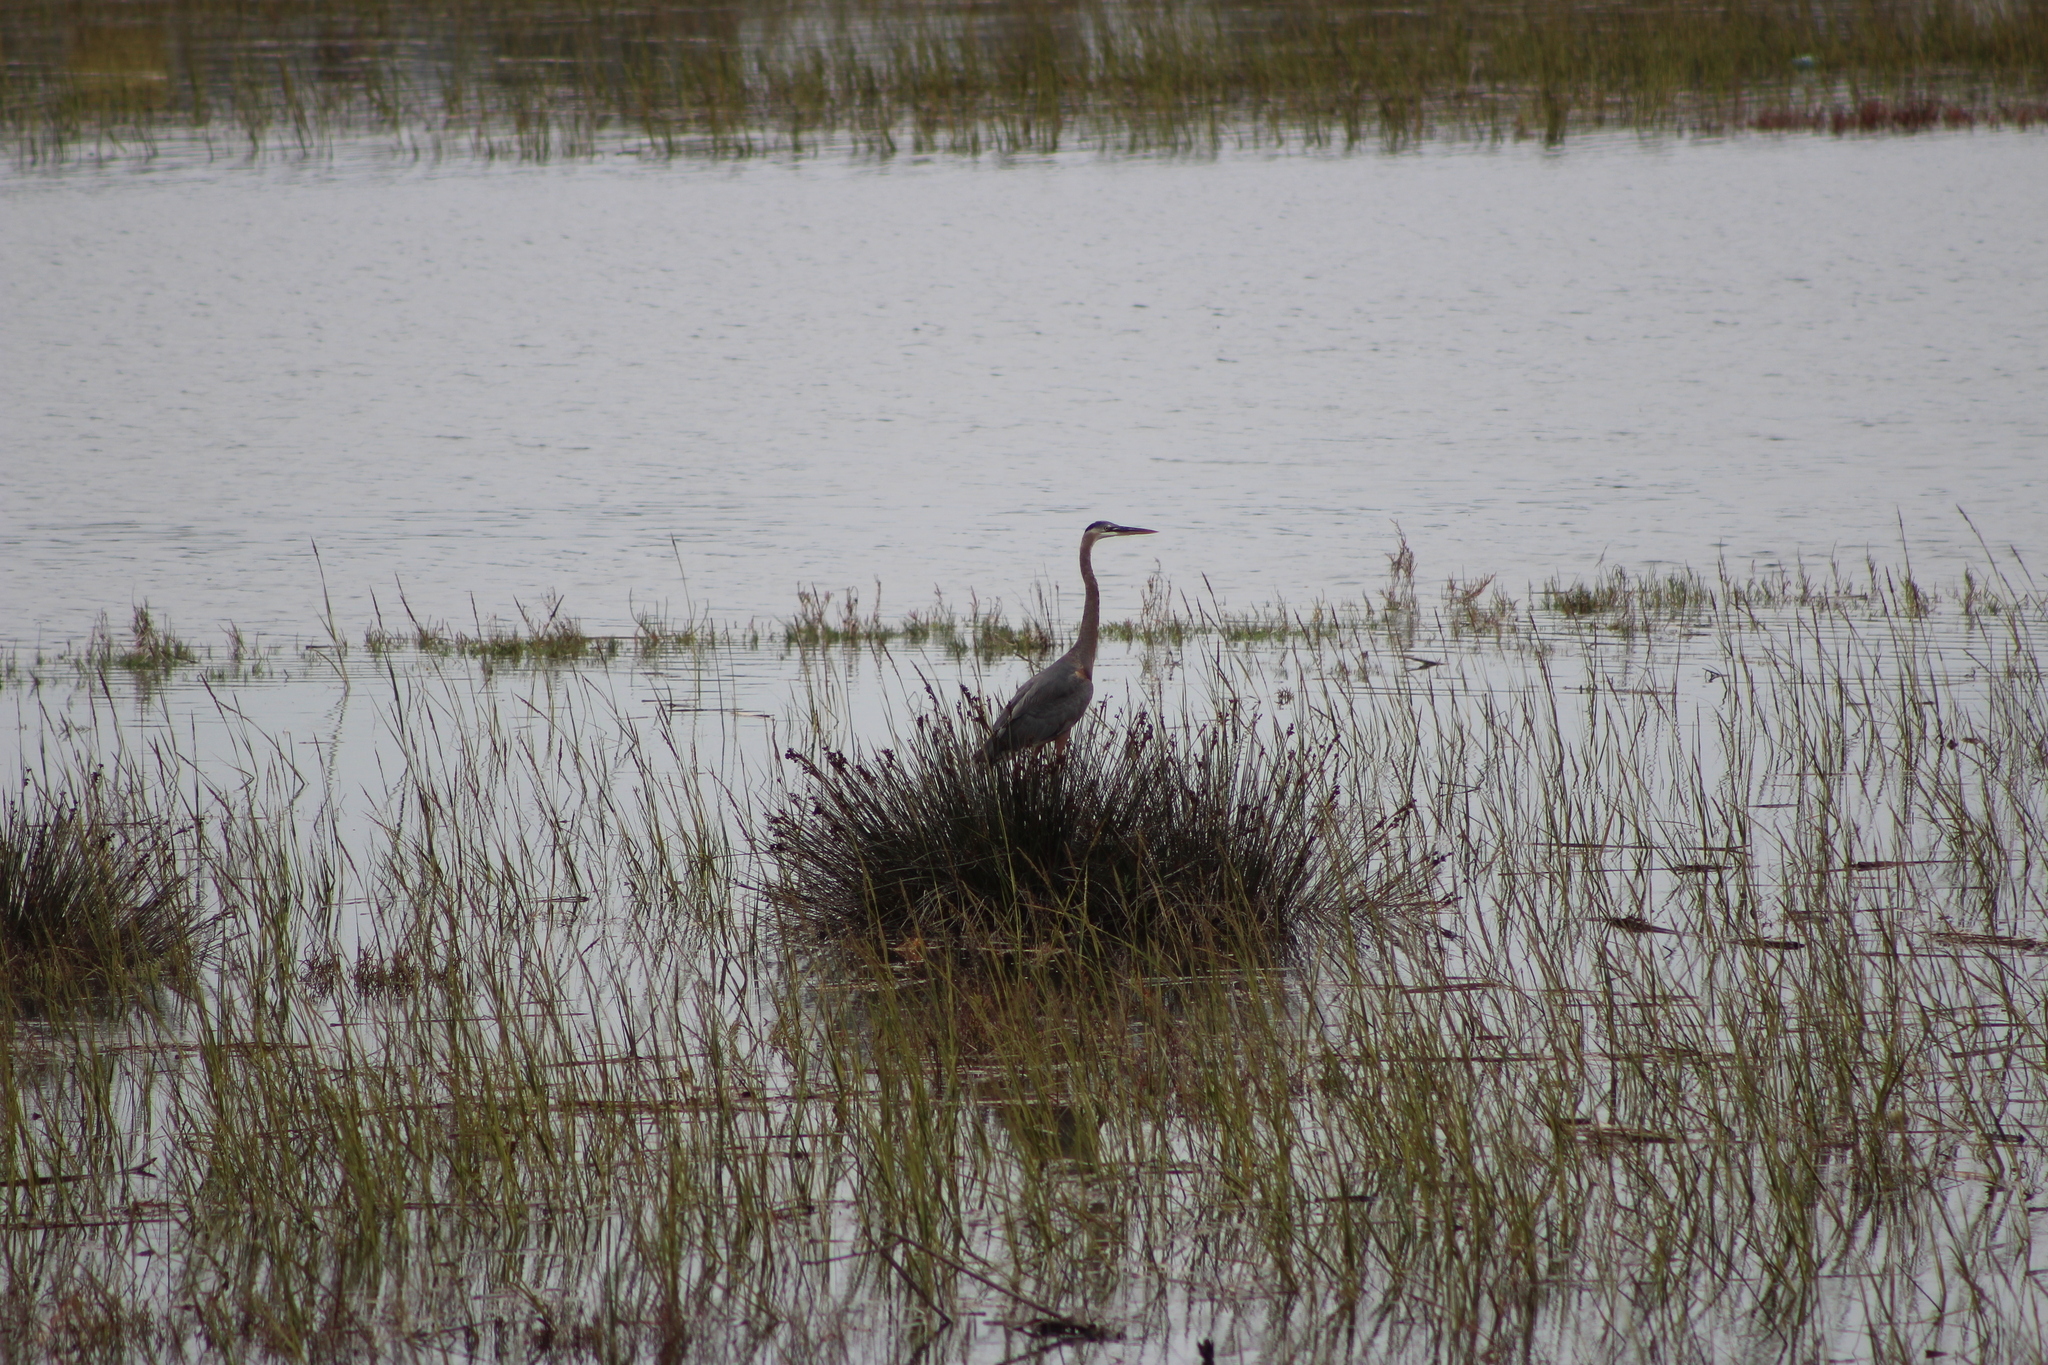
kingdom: Animalia
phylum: Chordata
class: Aves
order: Pelecaniformes
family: Ardeidae
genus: Ardea
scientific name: Ardea herodias
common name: Great blue heron
